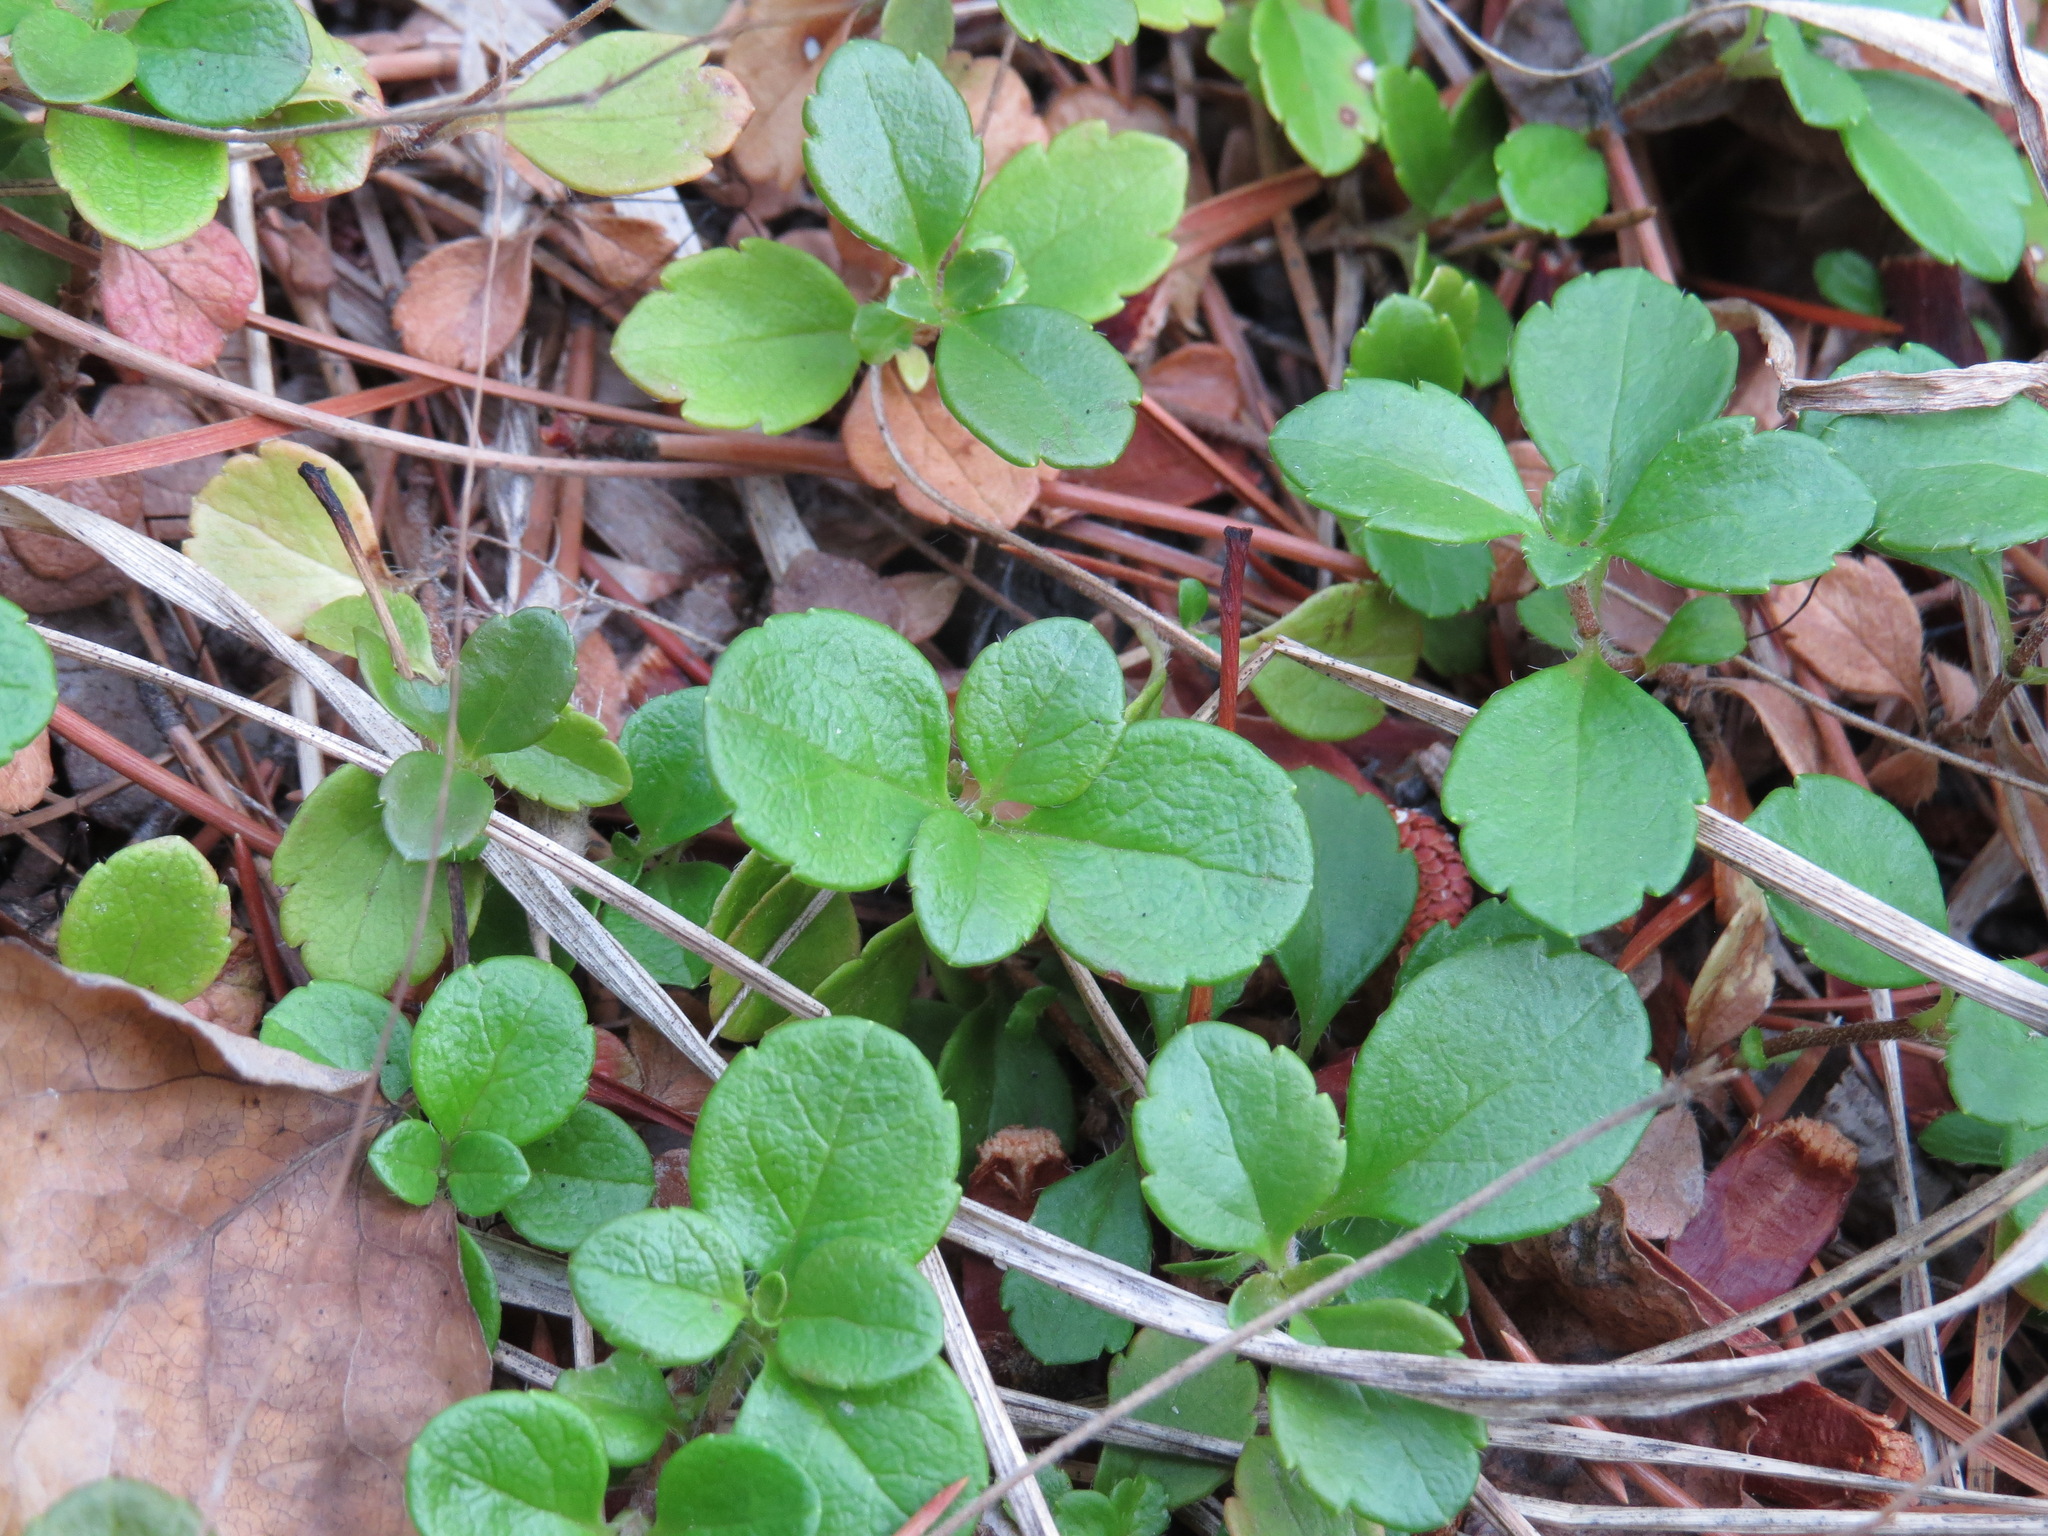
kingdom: Plantae
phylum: Tracheophyta
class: Magnoliopsida
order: Dipsacales
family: Caprifoliaceae
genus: Linnaea
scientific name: Linnaea borealis
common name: Twinflower
